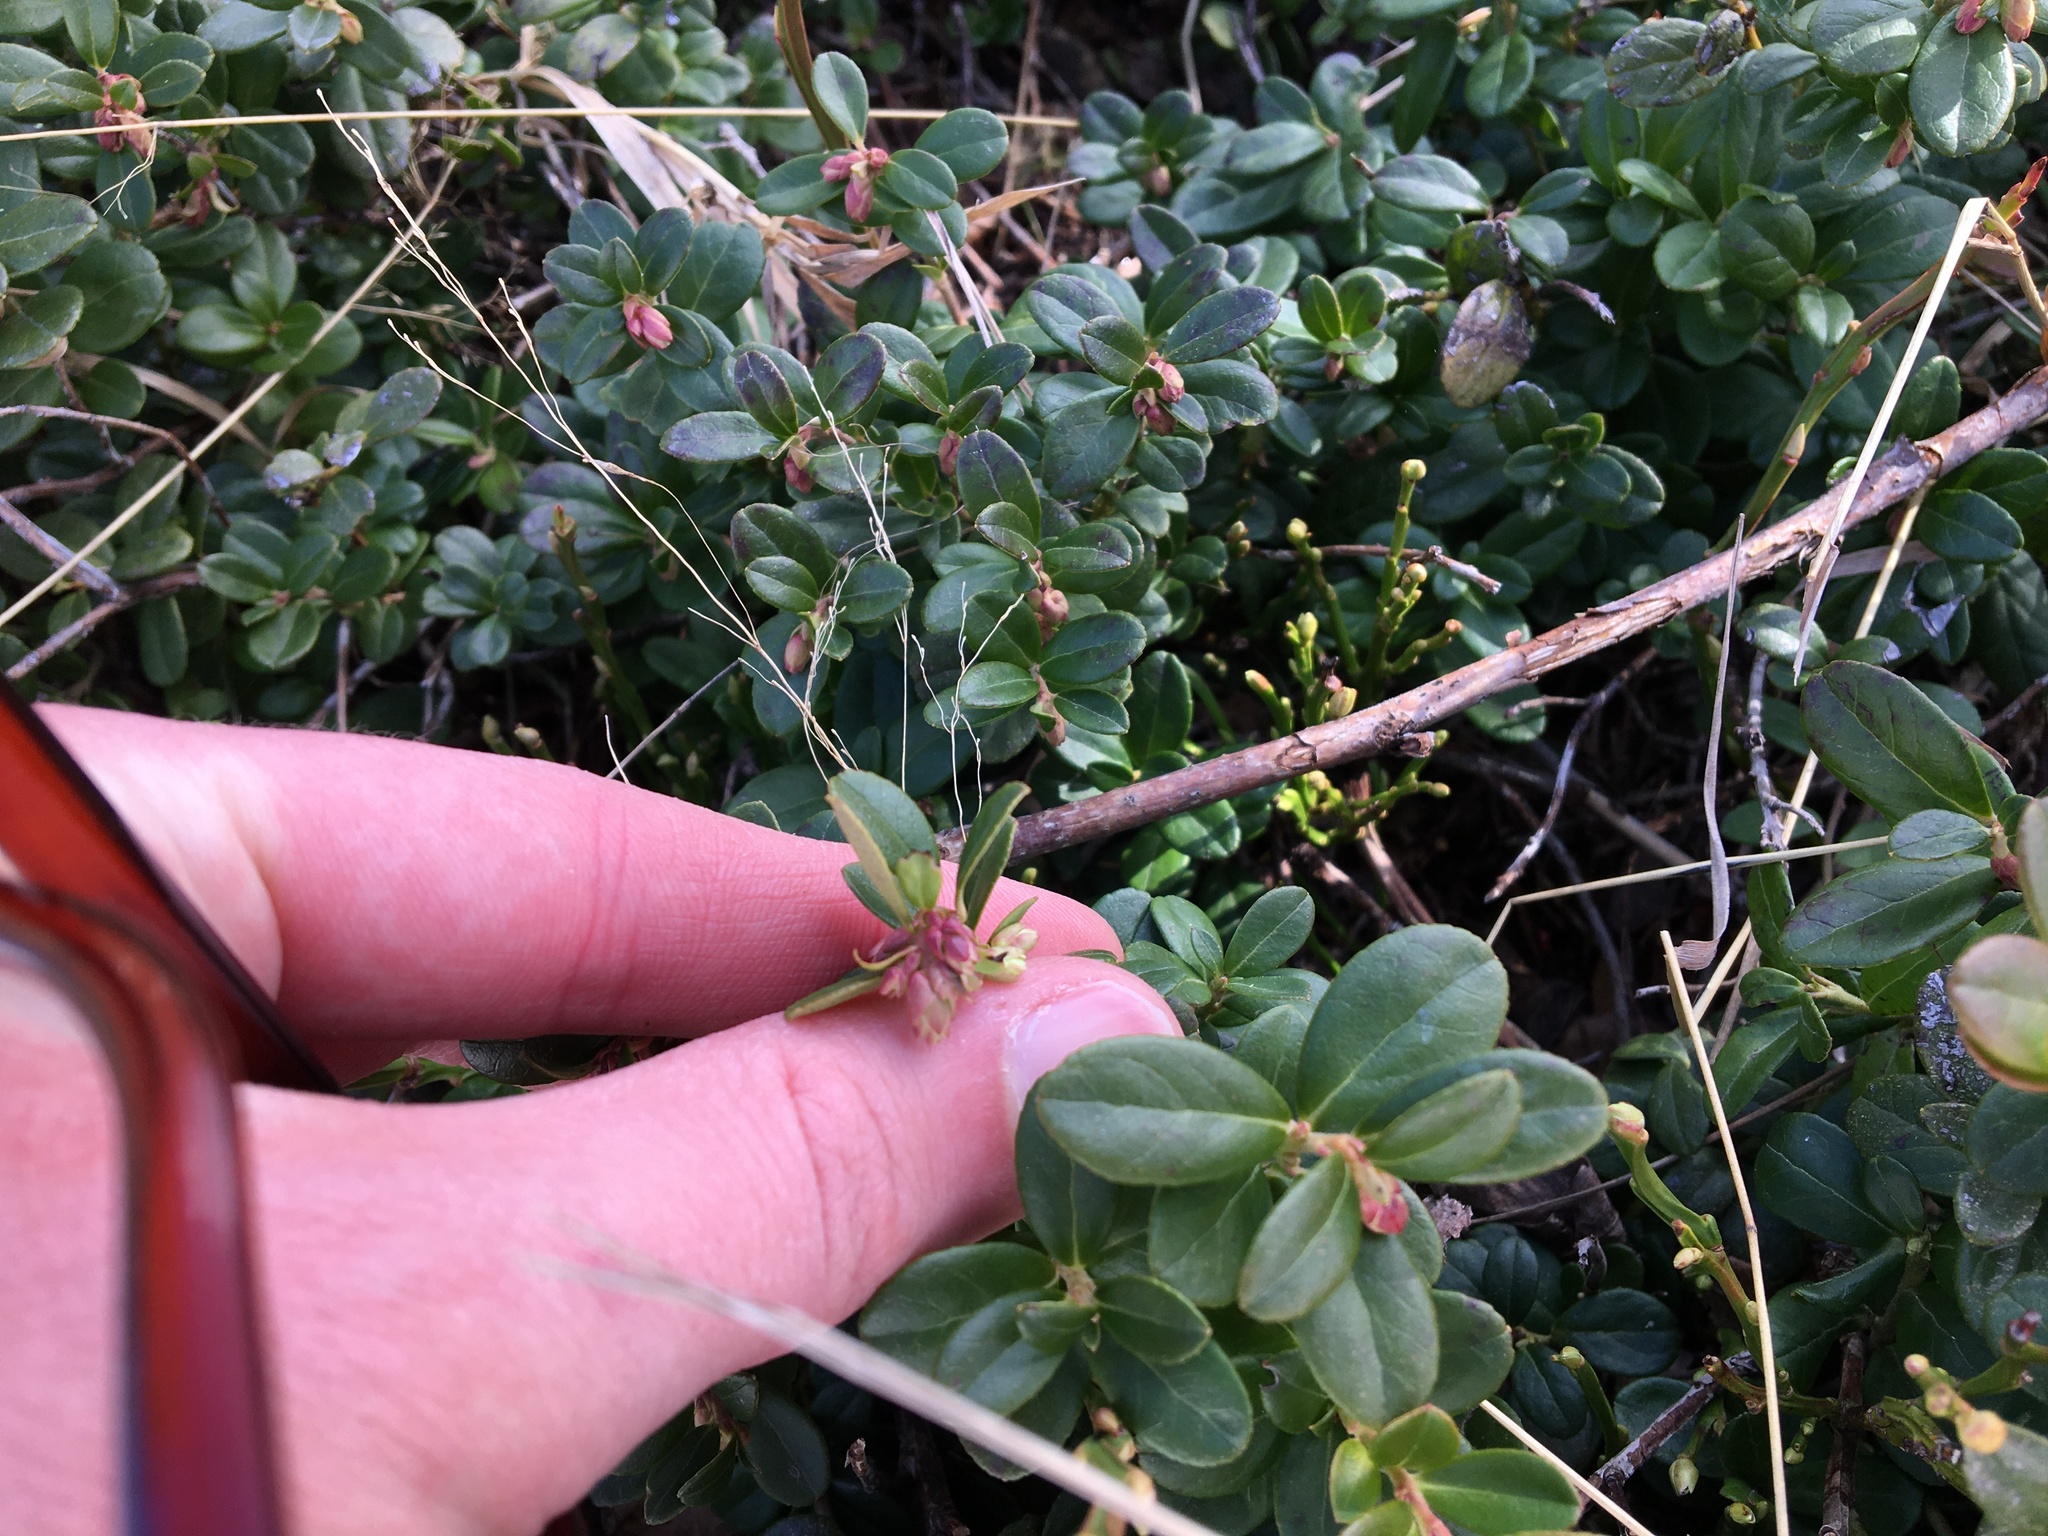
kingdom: Plantae
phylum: Tracheophyta
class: Magnoliopsida
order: Ericales
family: Ericaceae
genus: Vaccinium
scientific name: Vaccinium vitis-idaea
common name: Cowberry
